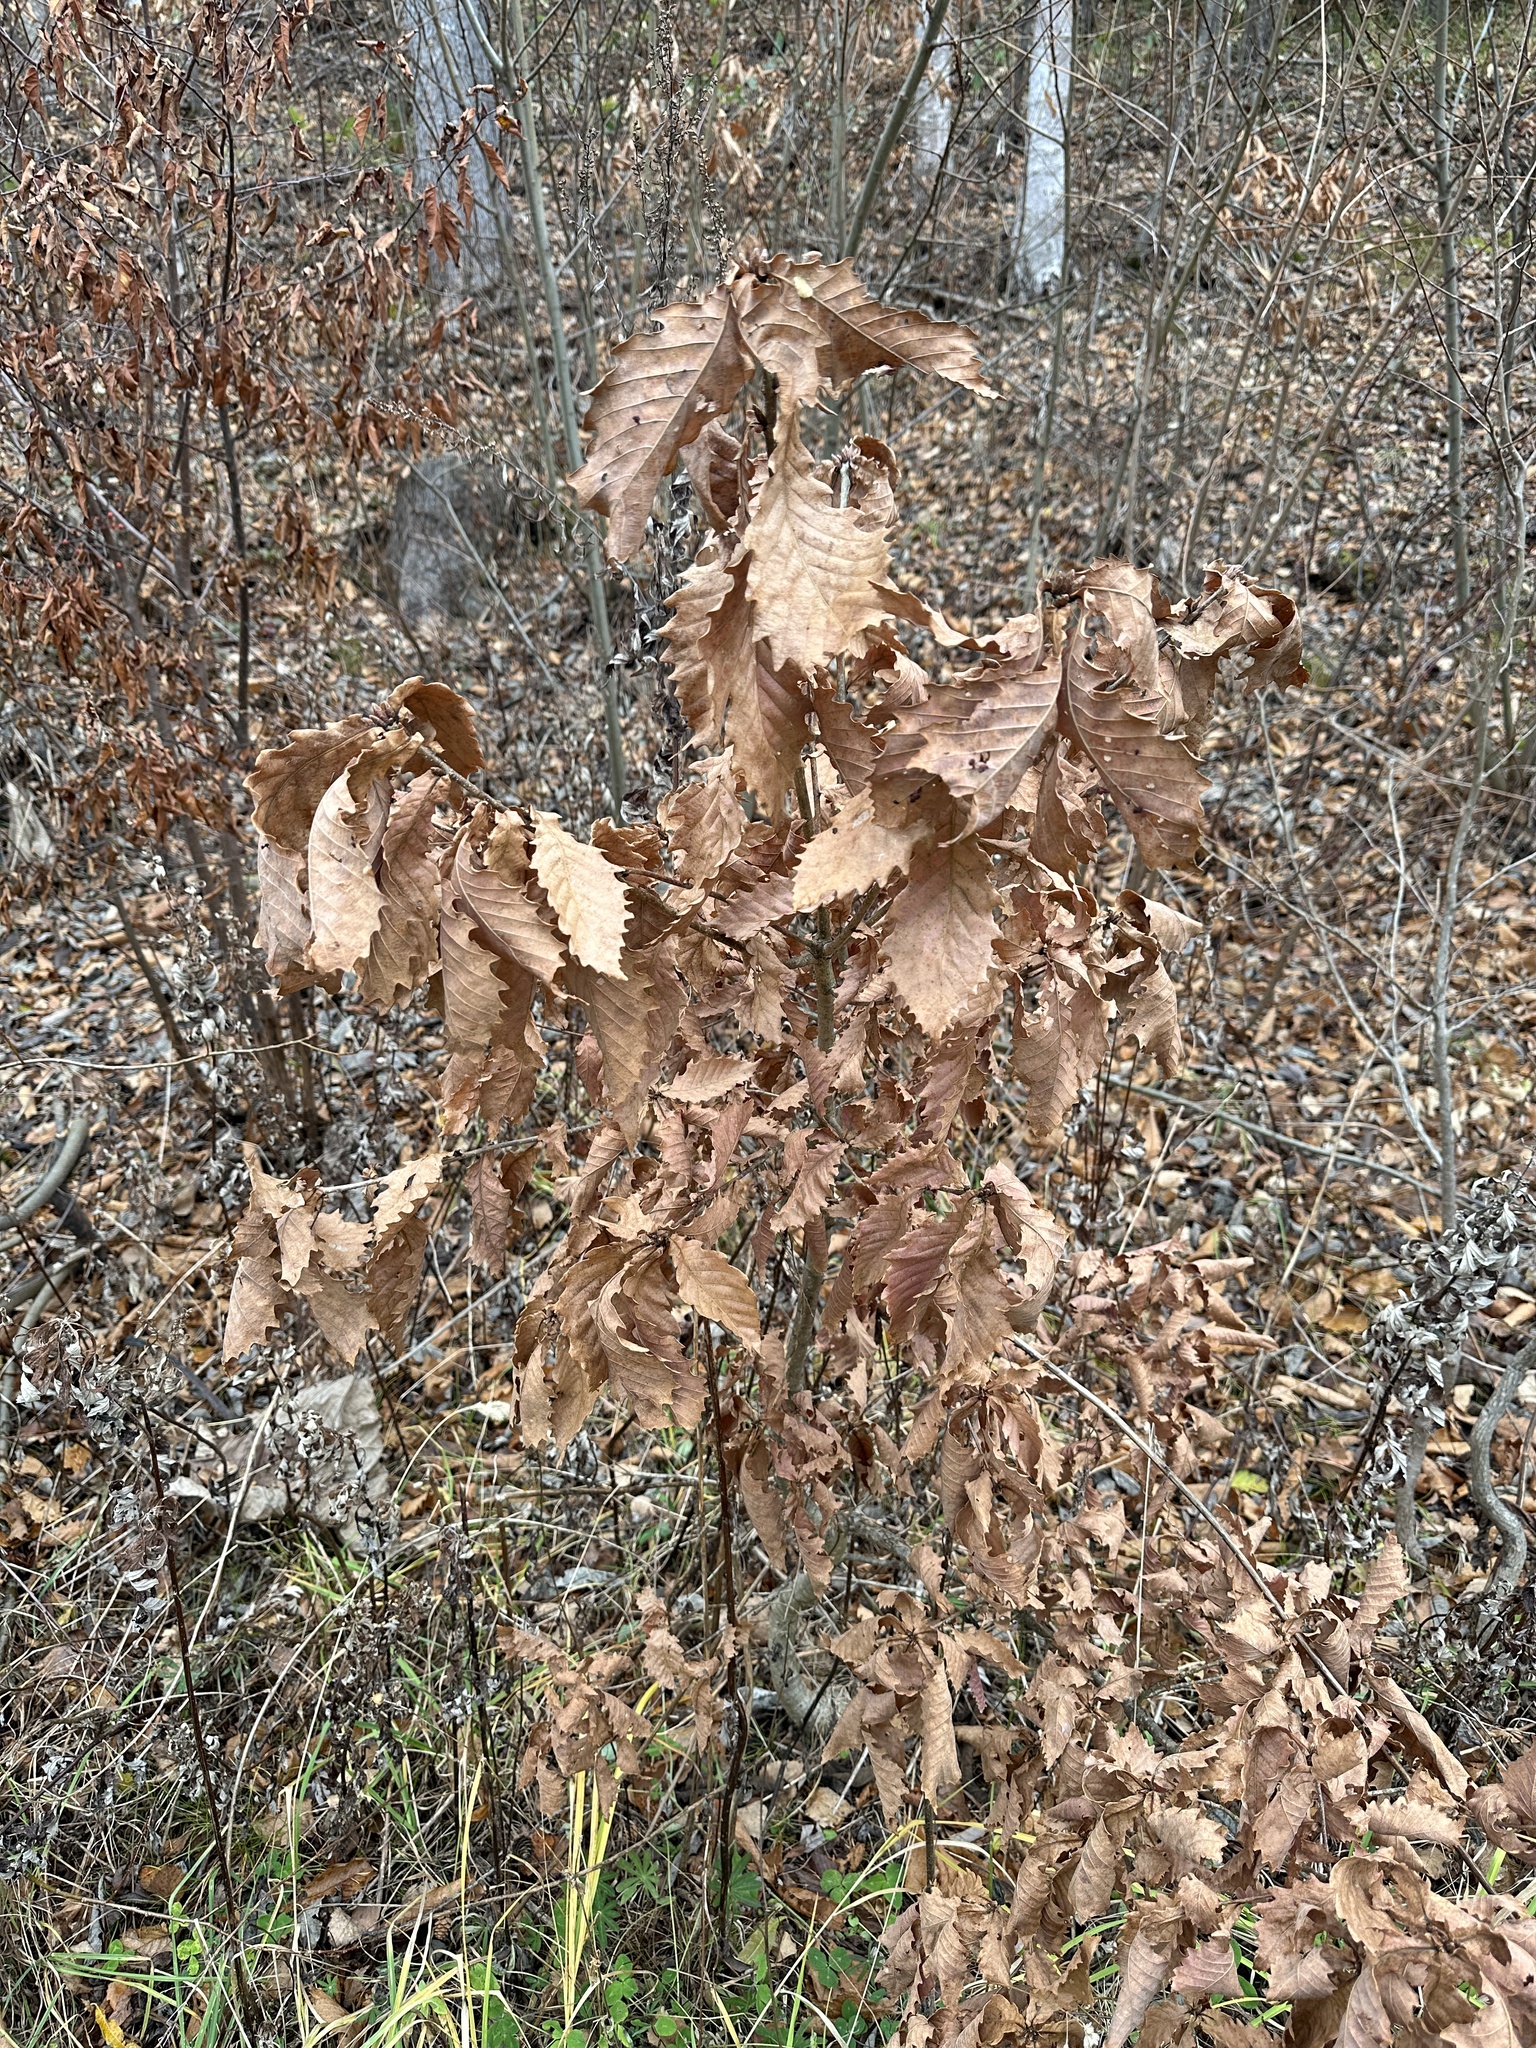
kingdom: Plantae
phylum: Tracheophyta
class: Magnoliopsida
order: Fagales
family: Fagaceae
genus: Quercus
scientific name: Quercus crispula
